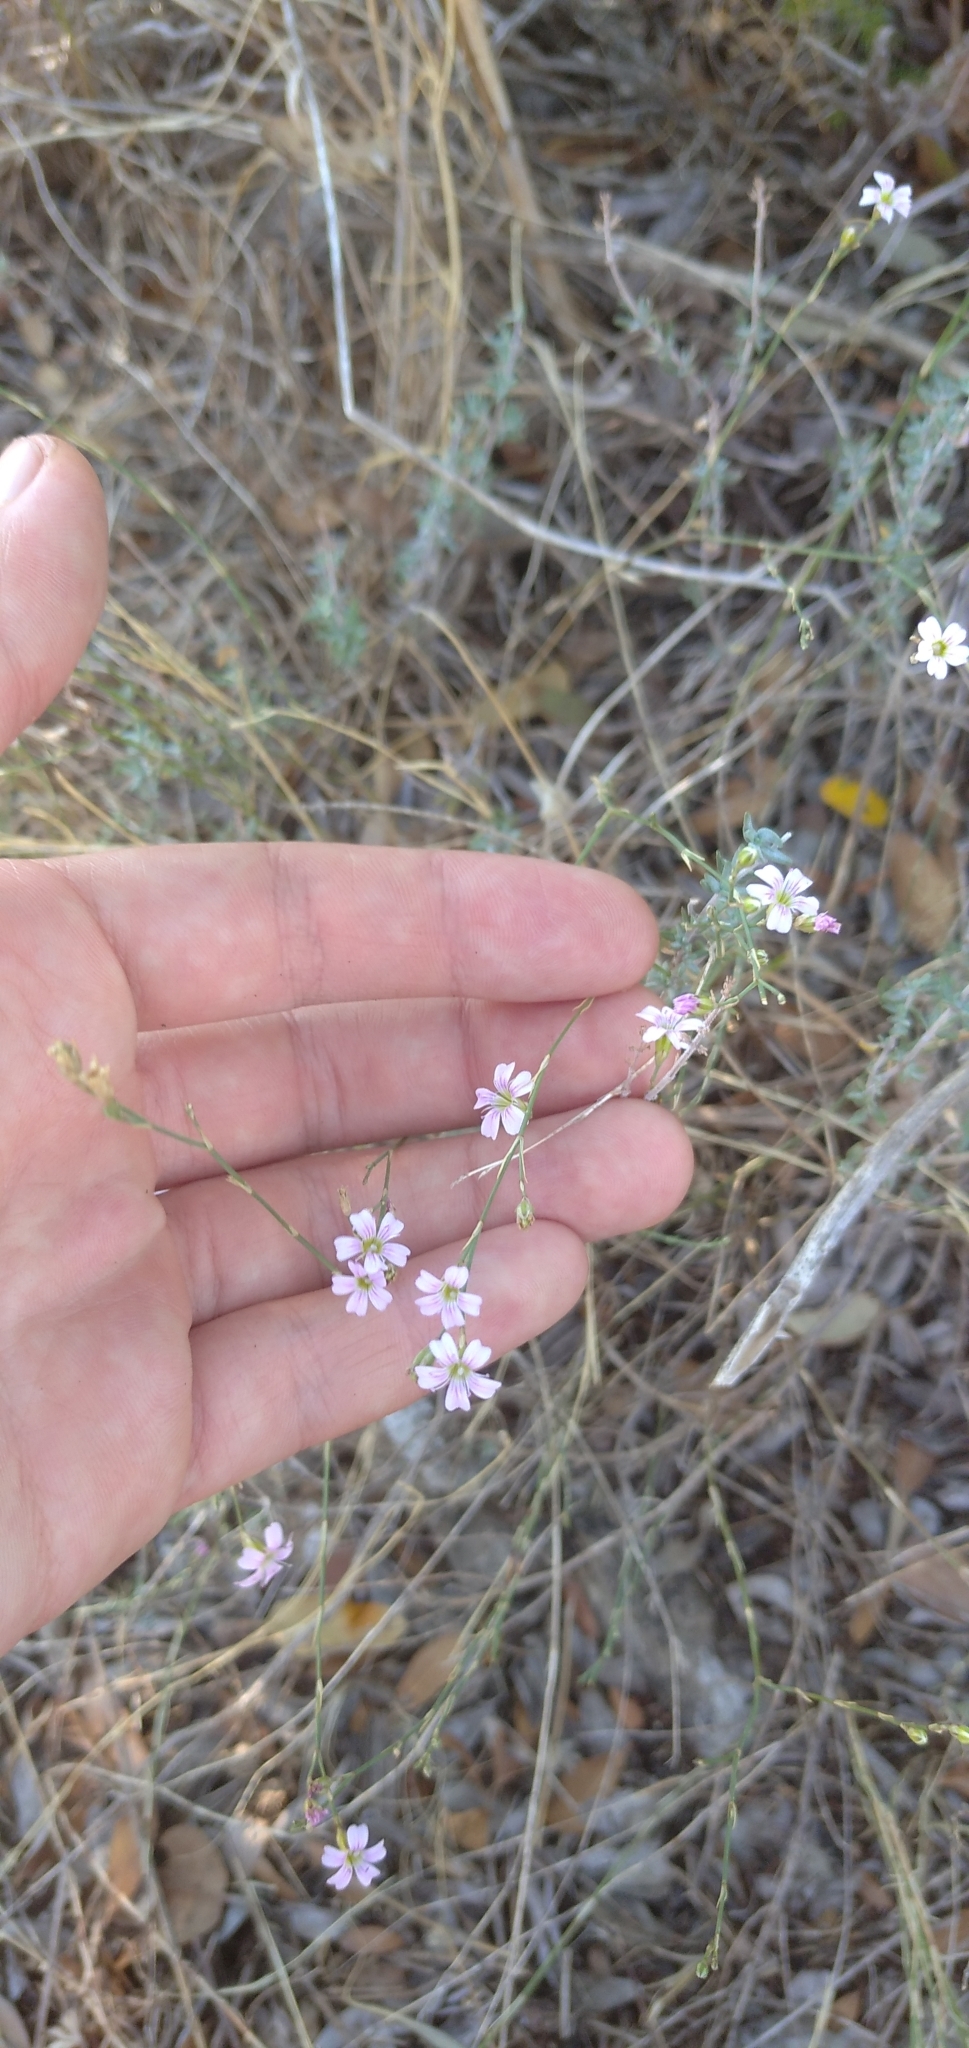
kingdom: Plantae
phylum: Tracheophyta
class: Magnoliopsida
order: Caryophyllales
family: Caryophyllaceae
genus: Petrorhagia
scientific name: Petrorhagia saxifraga
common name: Tunicflower
